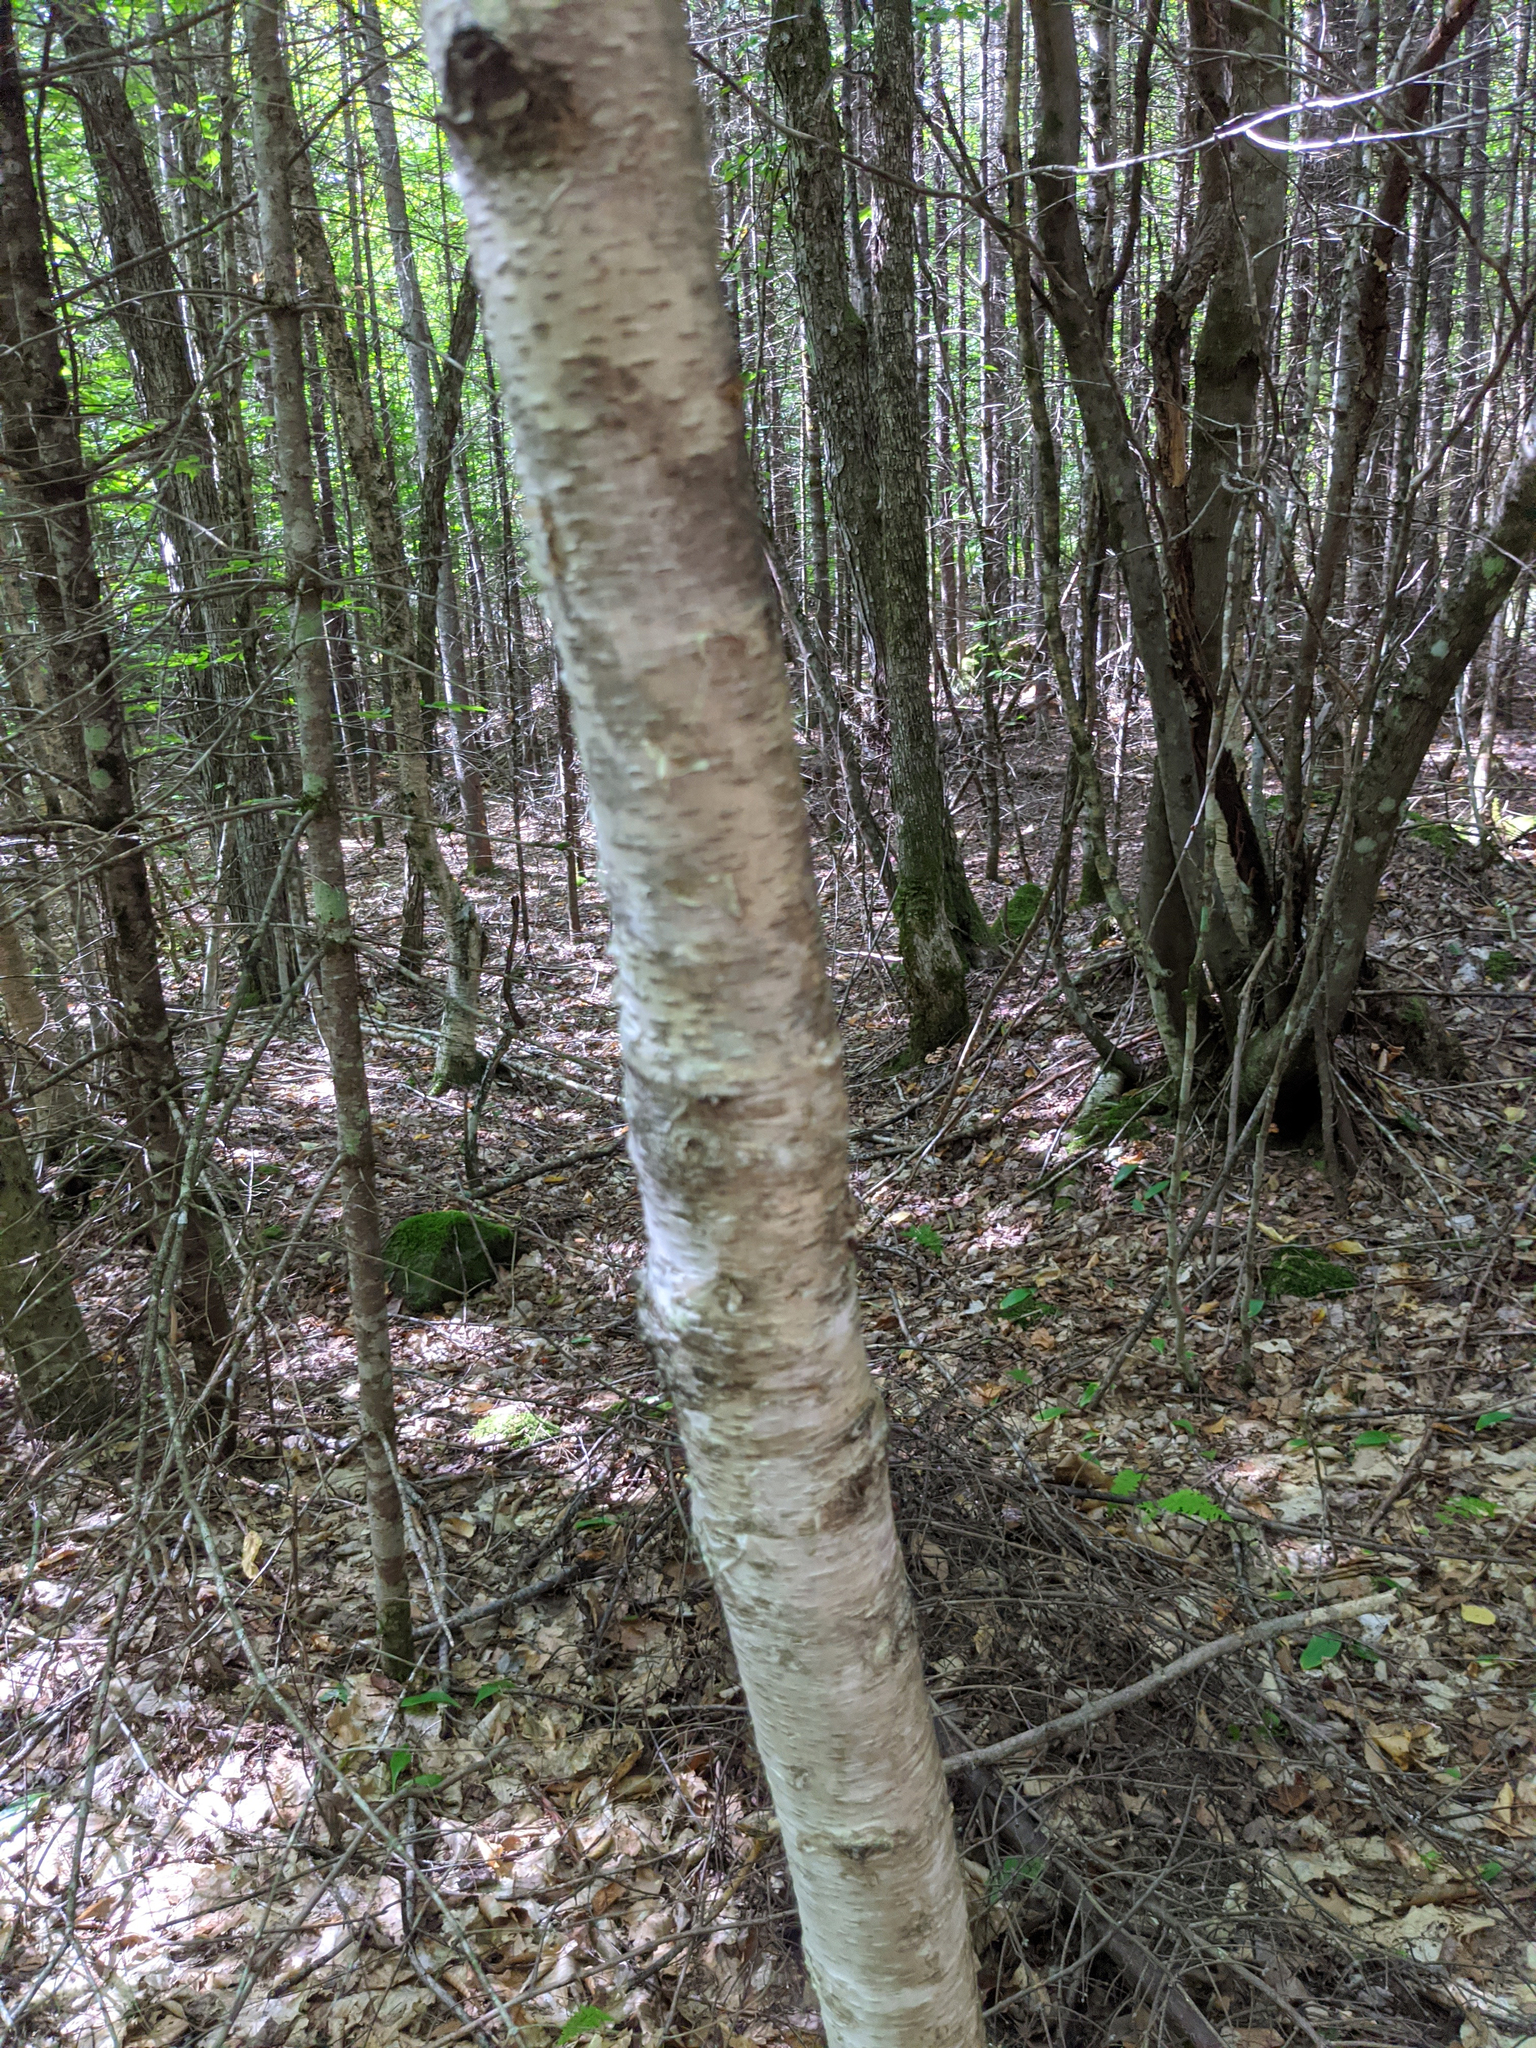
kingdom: Plantae
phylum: Tracheophyta
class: Magnoliopsida
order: Fagales
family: Betulaceae
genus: Betula
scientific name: Betula alleghaniensis
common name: Yellow birch
